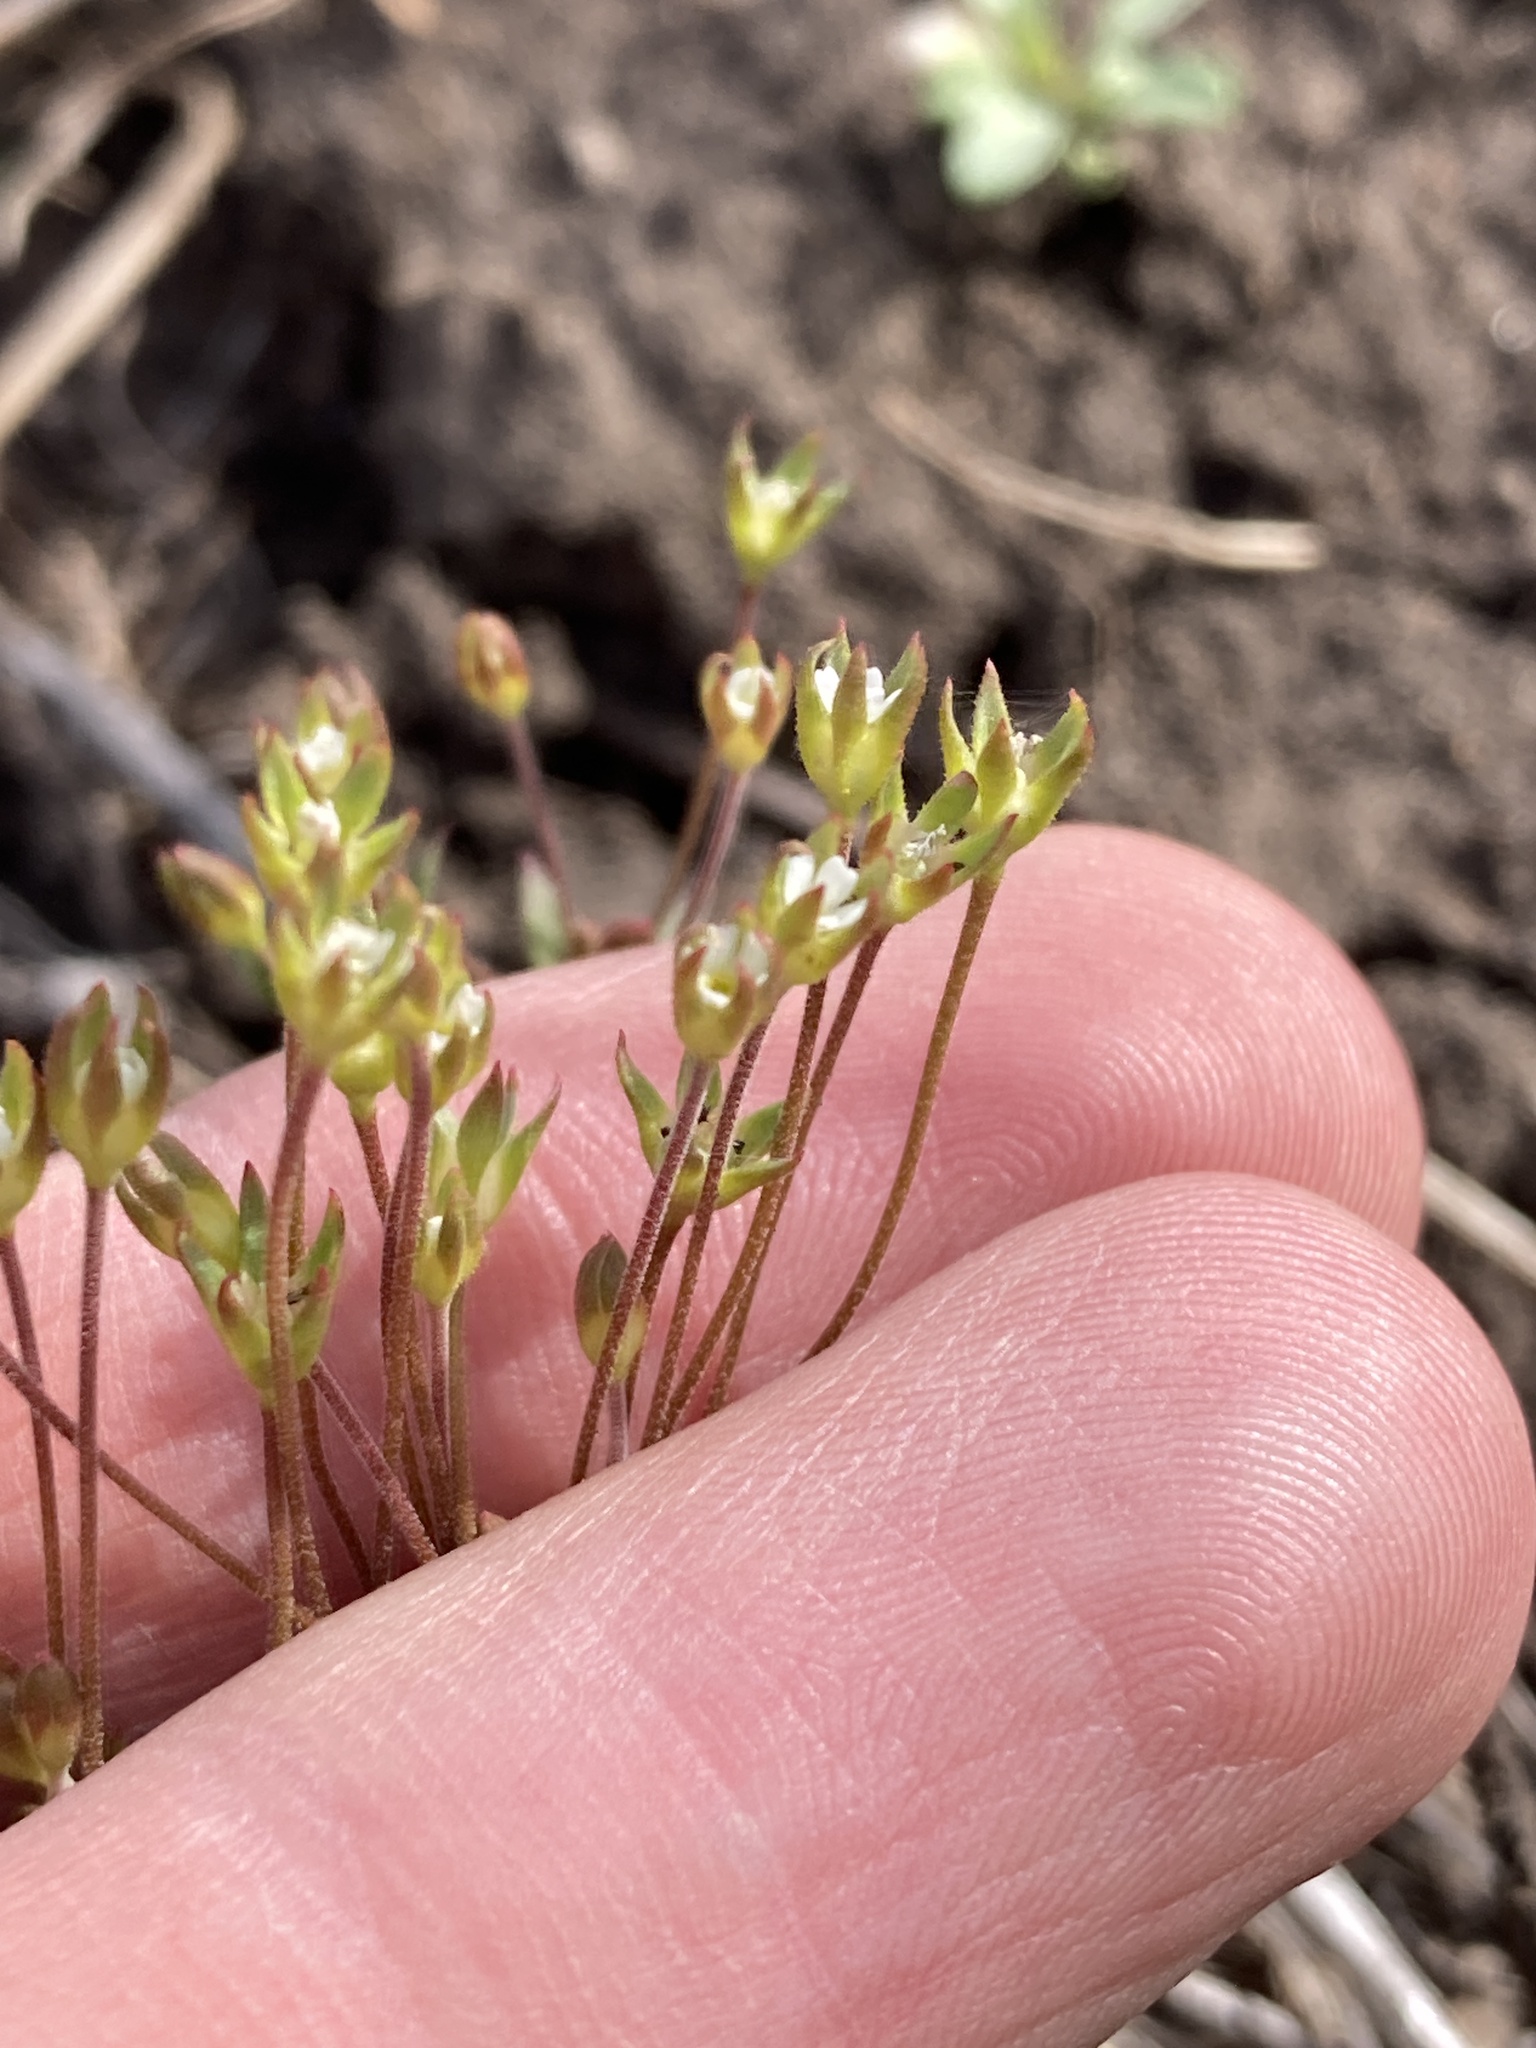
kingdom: Plantae
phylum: Tracheophyta
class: Magnoliopsida
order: Ericales
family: Primulaceae
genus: Androsace
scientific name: Androsace elongata
